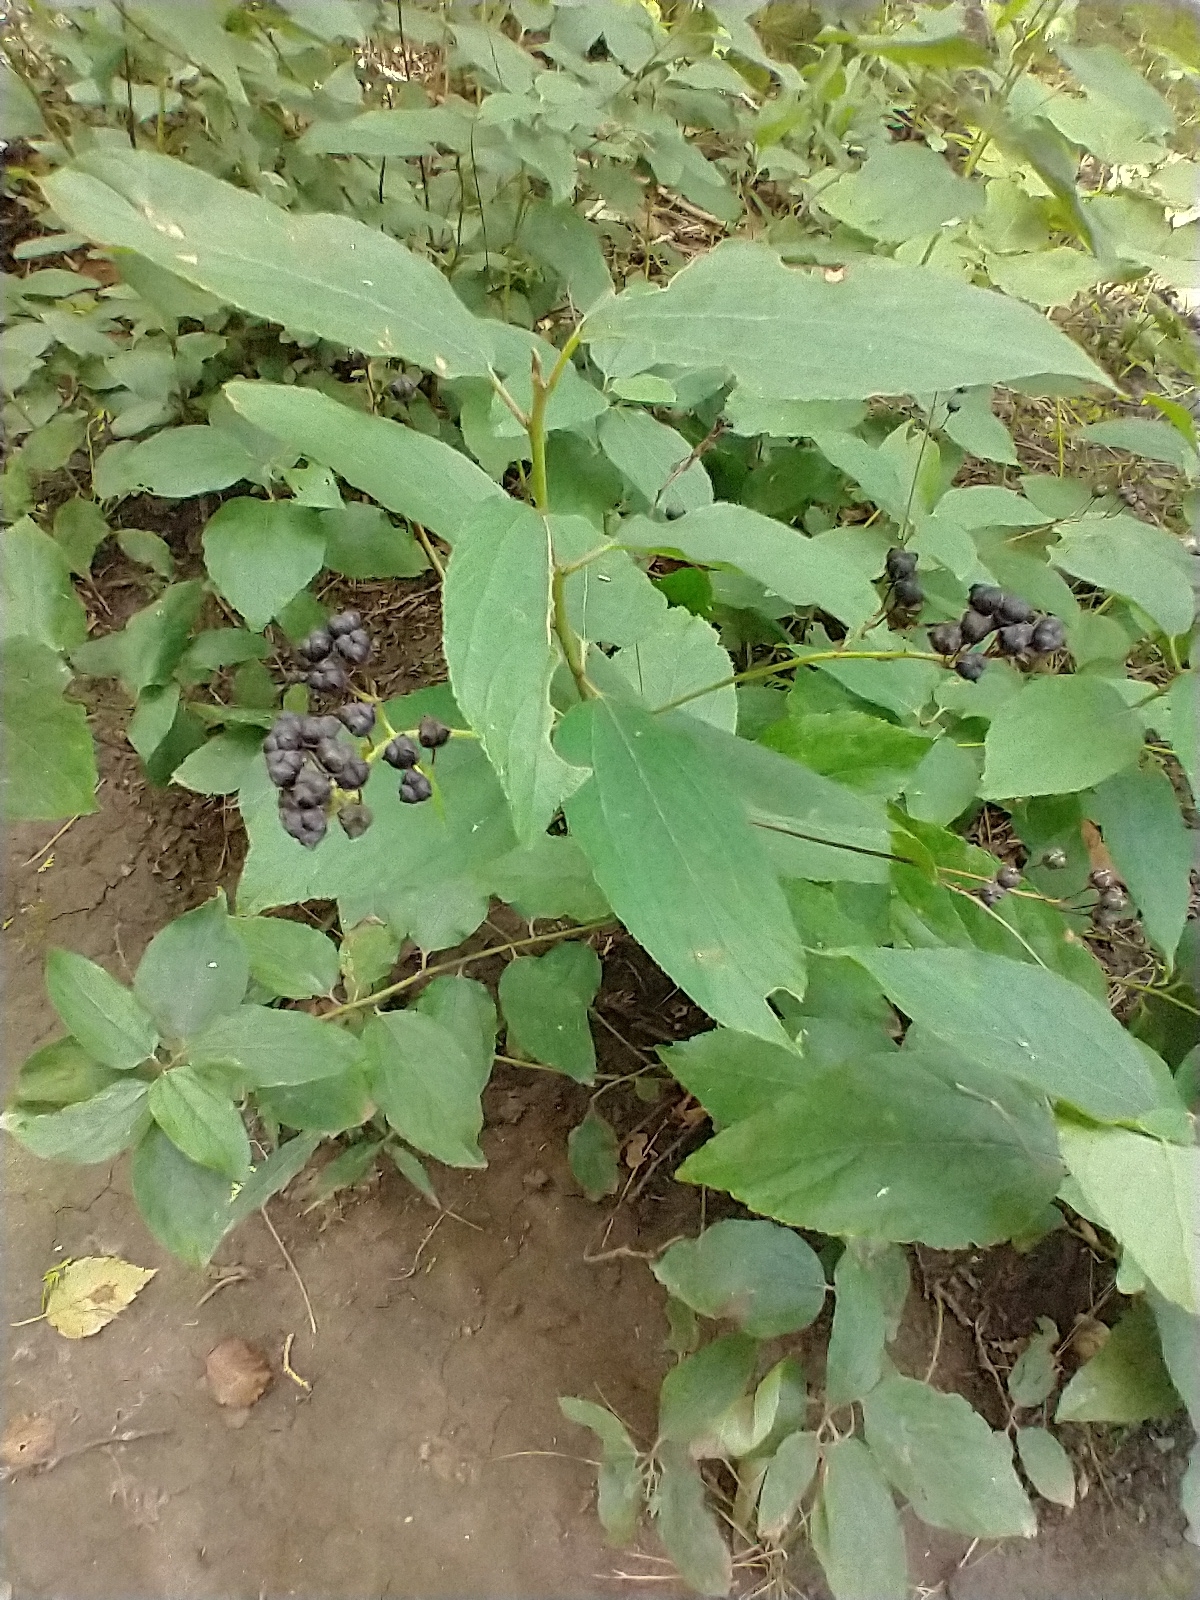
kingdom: Plantae
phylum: Tracheophyta
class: Magnoliopsida
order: Rosales
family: Rhamnaceae
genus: Ceanothus
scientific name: Ceanothus americanus
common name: Redroot
